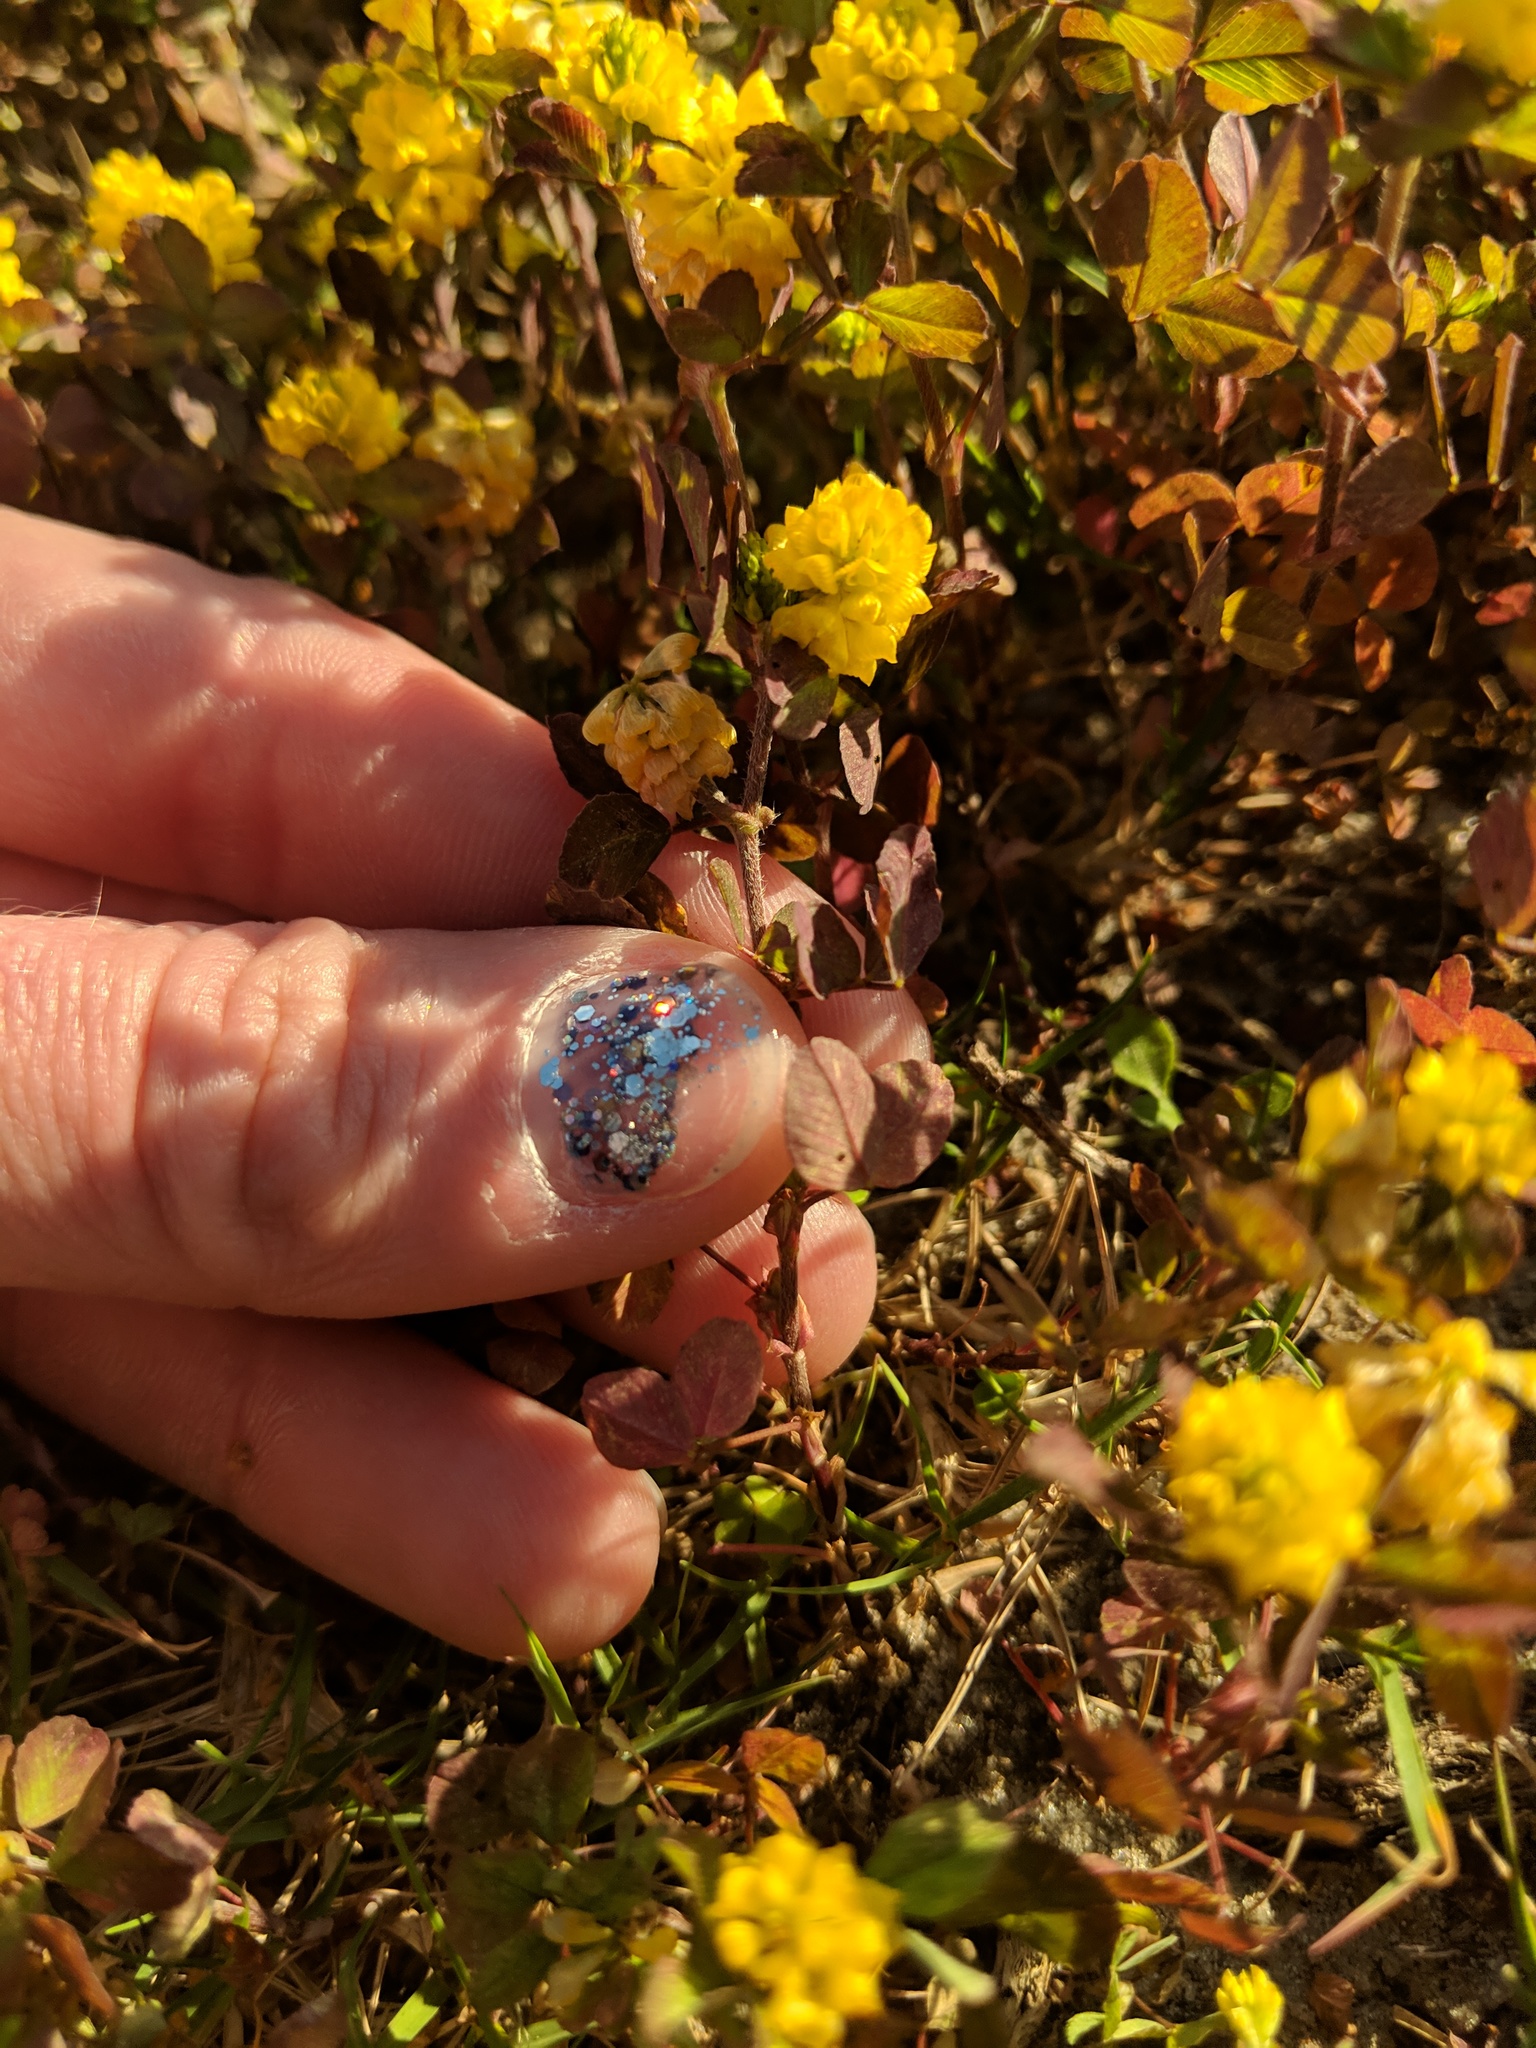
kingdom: Plantae
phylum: Tracheophyta
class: Magnoliopsida
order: Fabales
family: Fabaceae
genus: Trifolium
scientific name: Trifolium campestre
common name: Field clover
